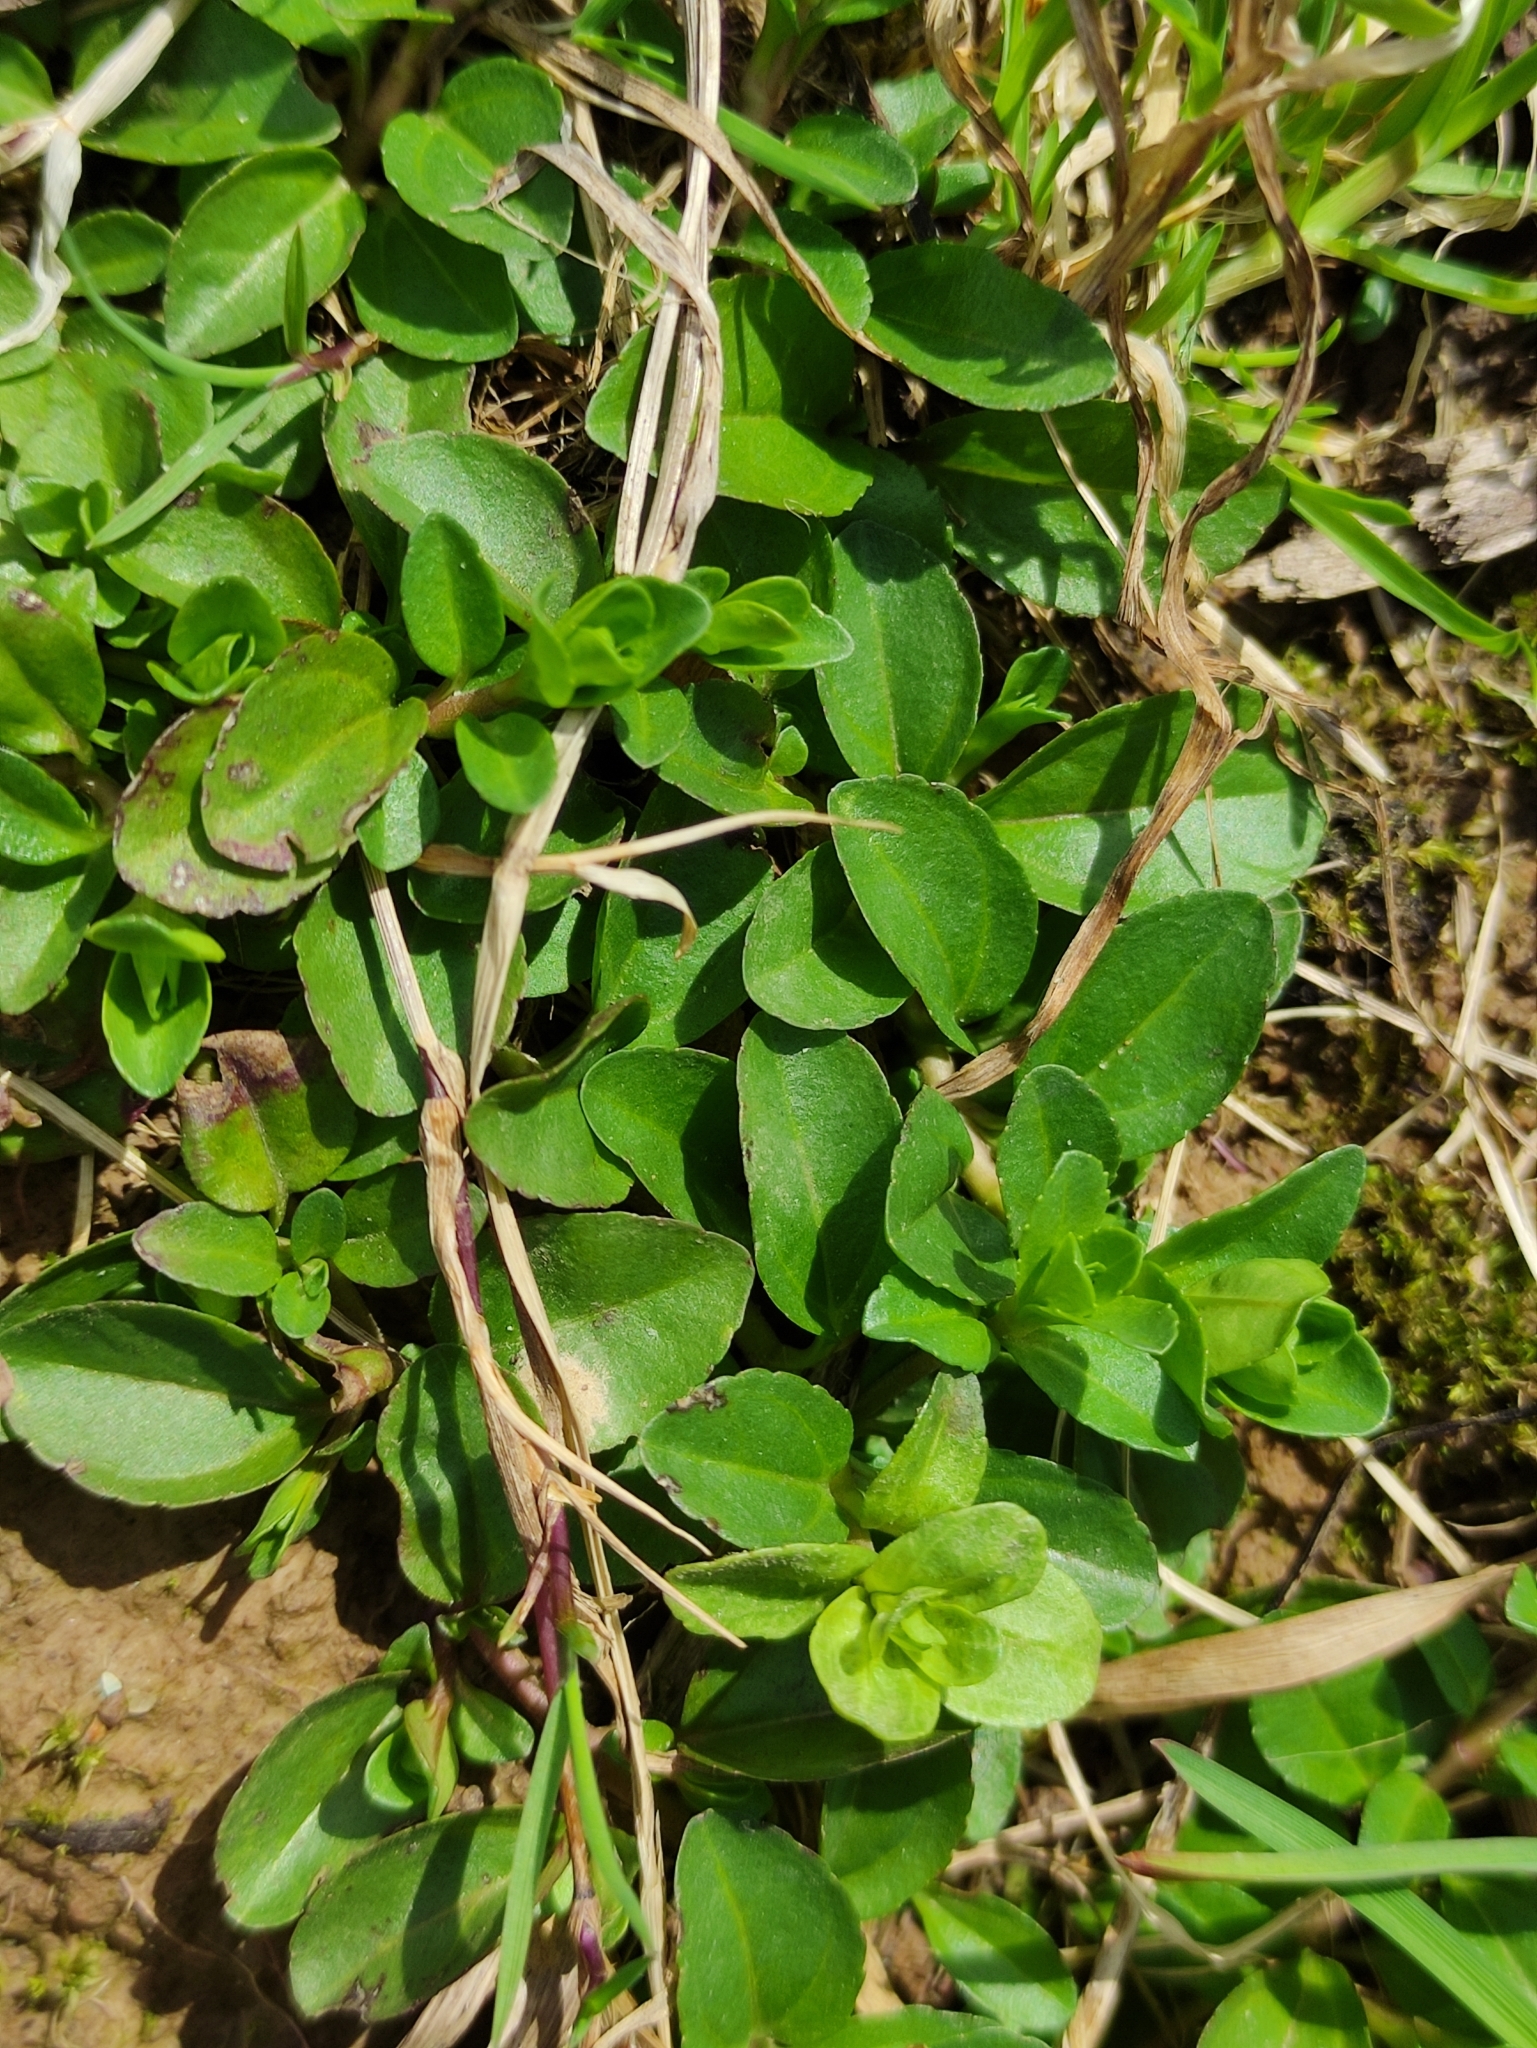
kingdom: Plantae
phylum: Tracheophyta
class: Magnoliopsida
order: Lamiales
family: Plantaginaceae
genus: Veronica
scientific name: Veronica serpyllifolia
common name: Thyme-leaved speedwell
